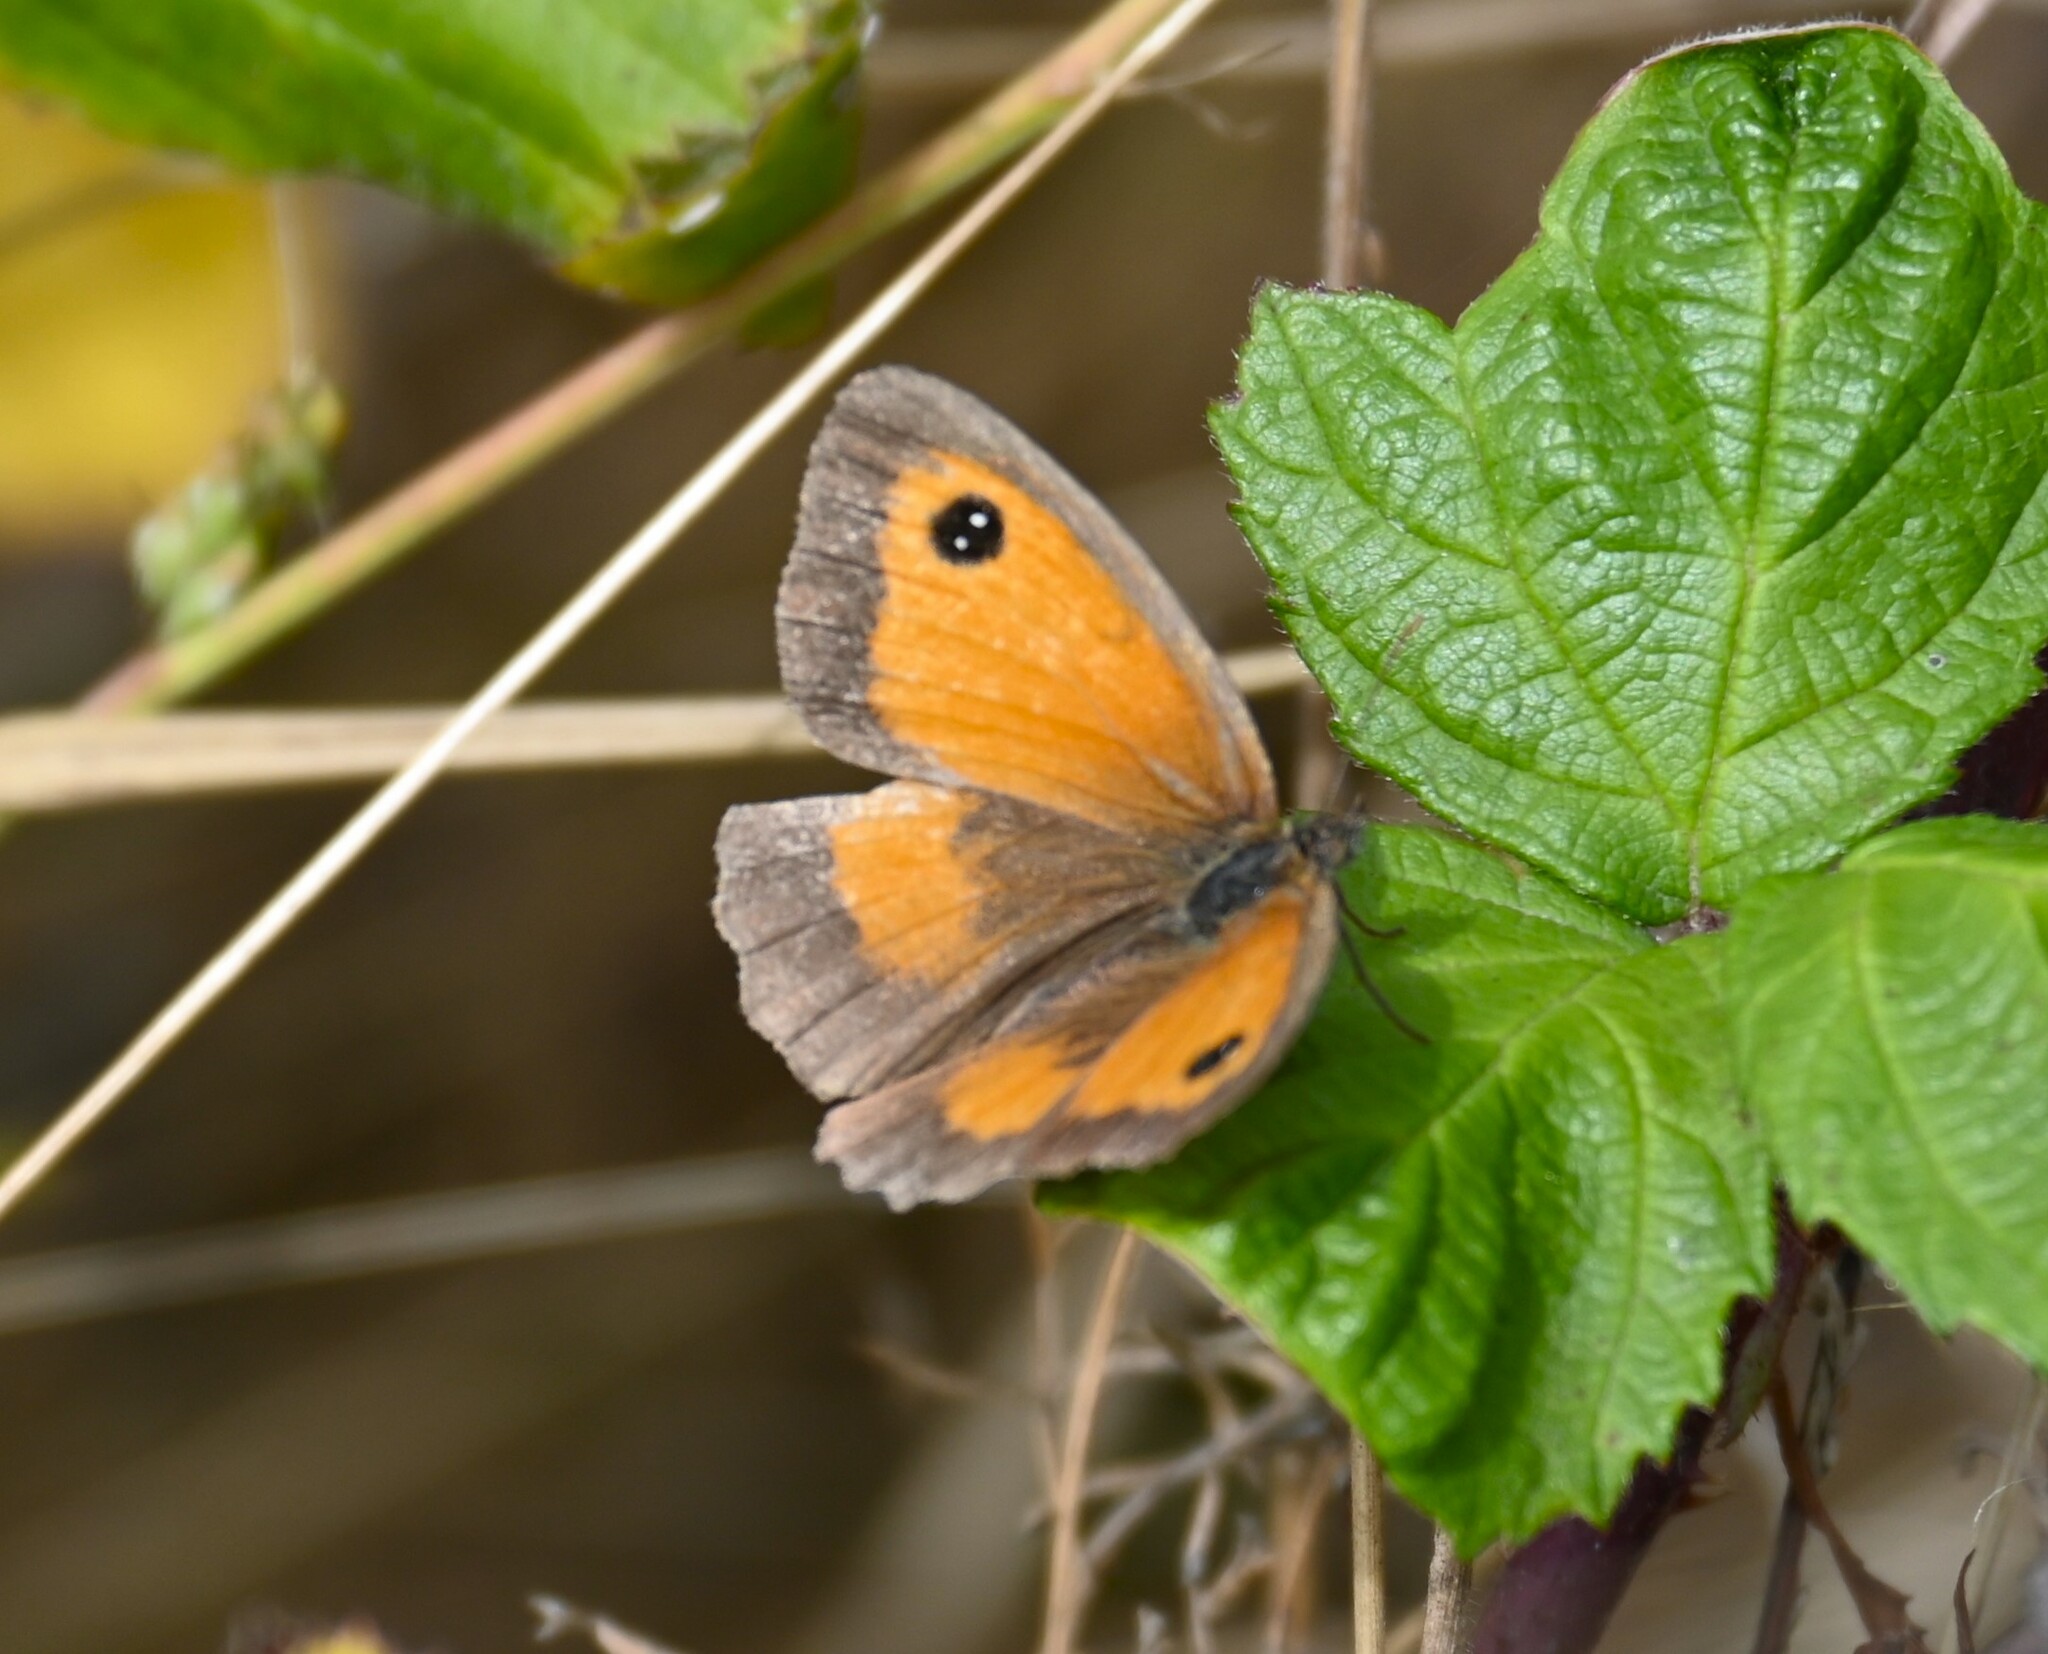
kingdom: Animalia
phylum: Arthropoda
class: Insecta
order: Lepidoptera
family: Nymphalidae
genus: Pyronia
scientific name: Pyronia tithonus
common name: Gatekeeper
